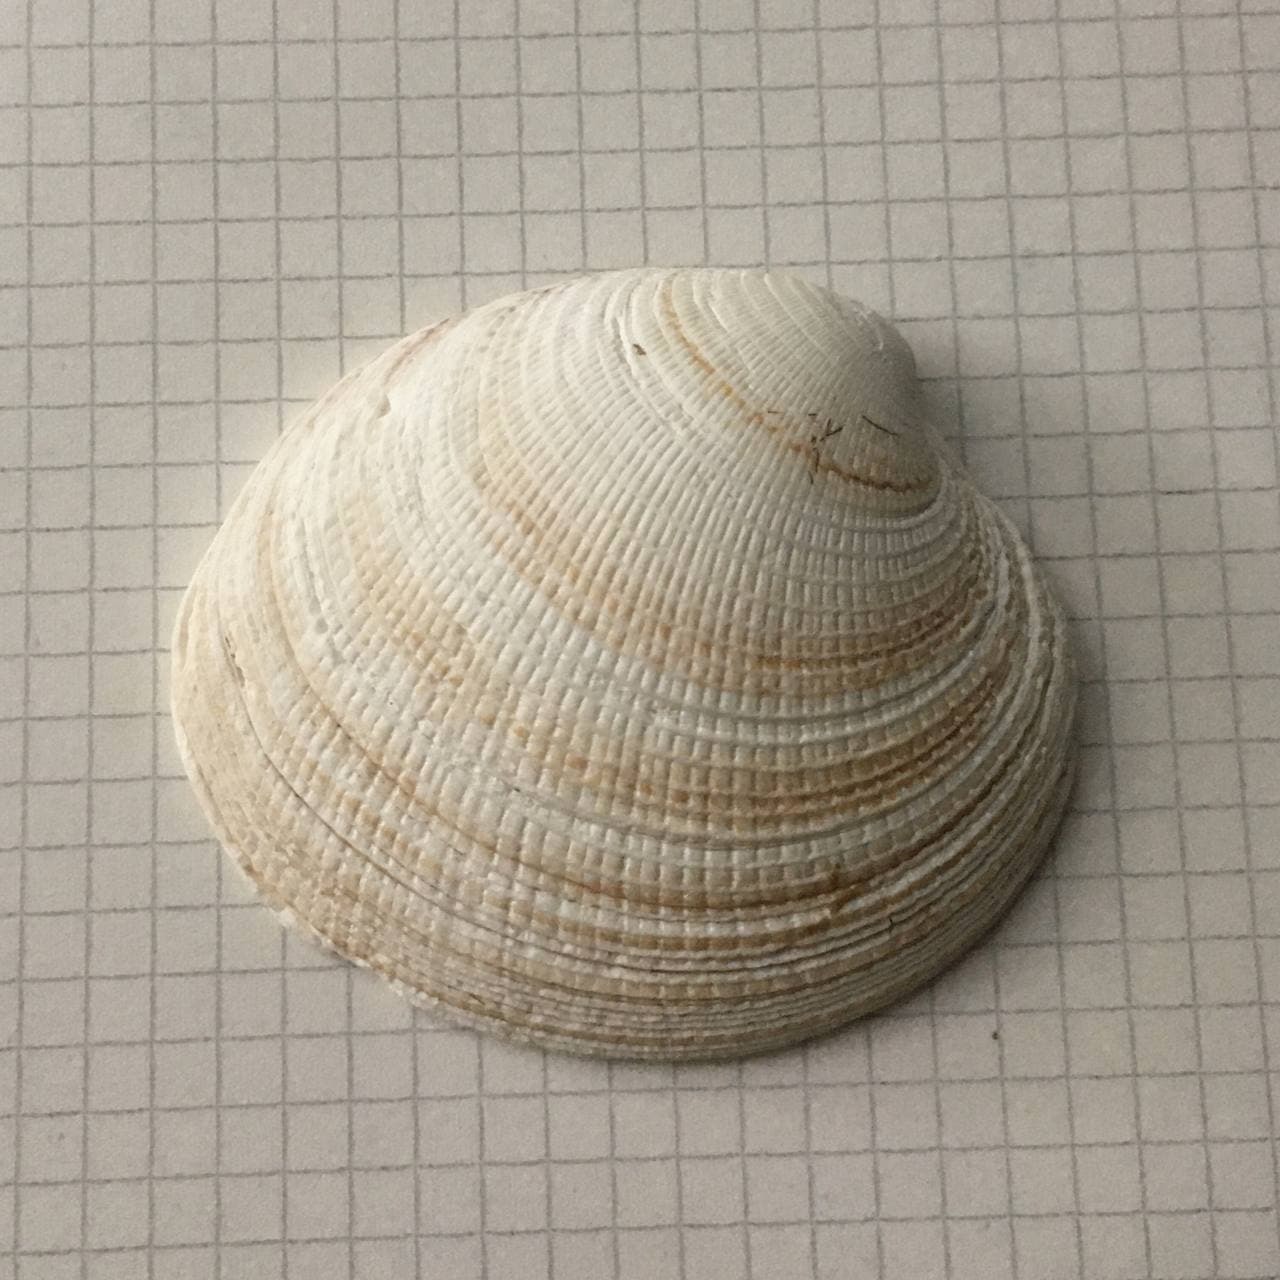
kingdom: Animalia
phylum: Mollusca
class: Bivalvia
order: Venerida
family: Veneridae
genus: Ameghinomya
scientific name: Ameghinomya antiqua
